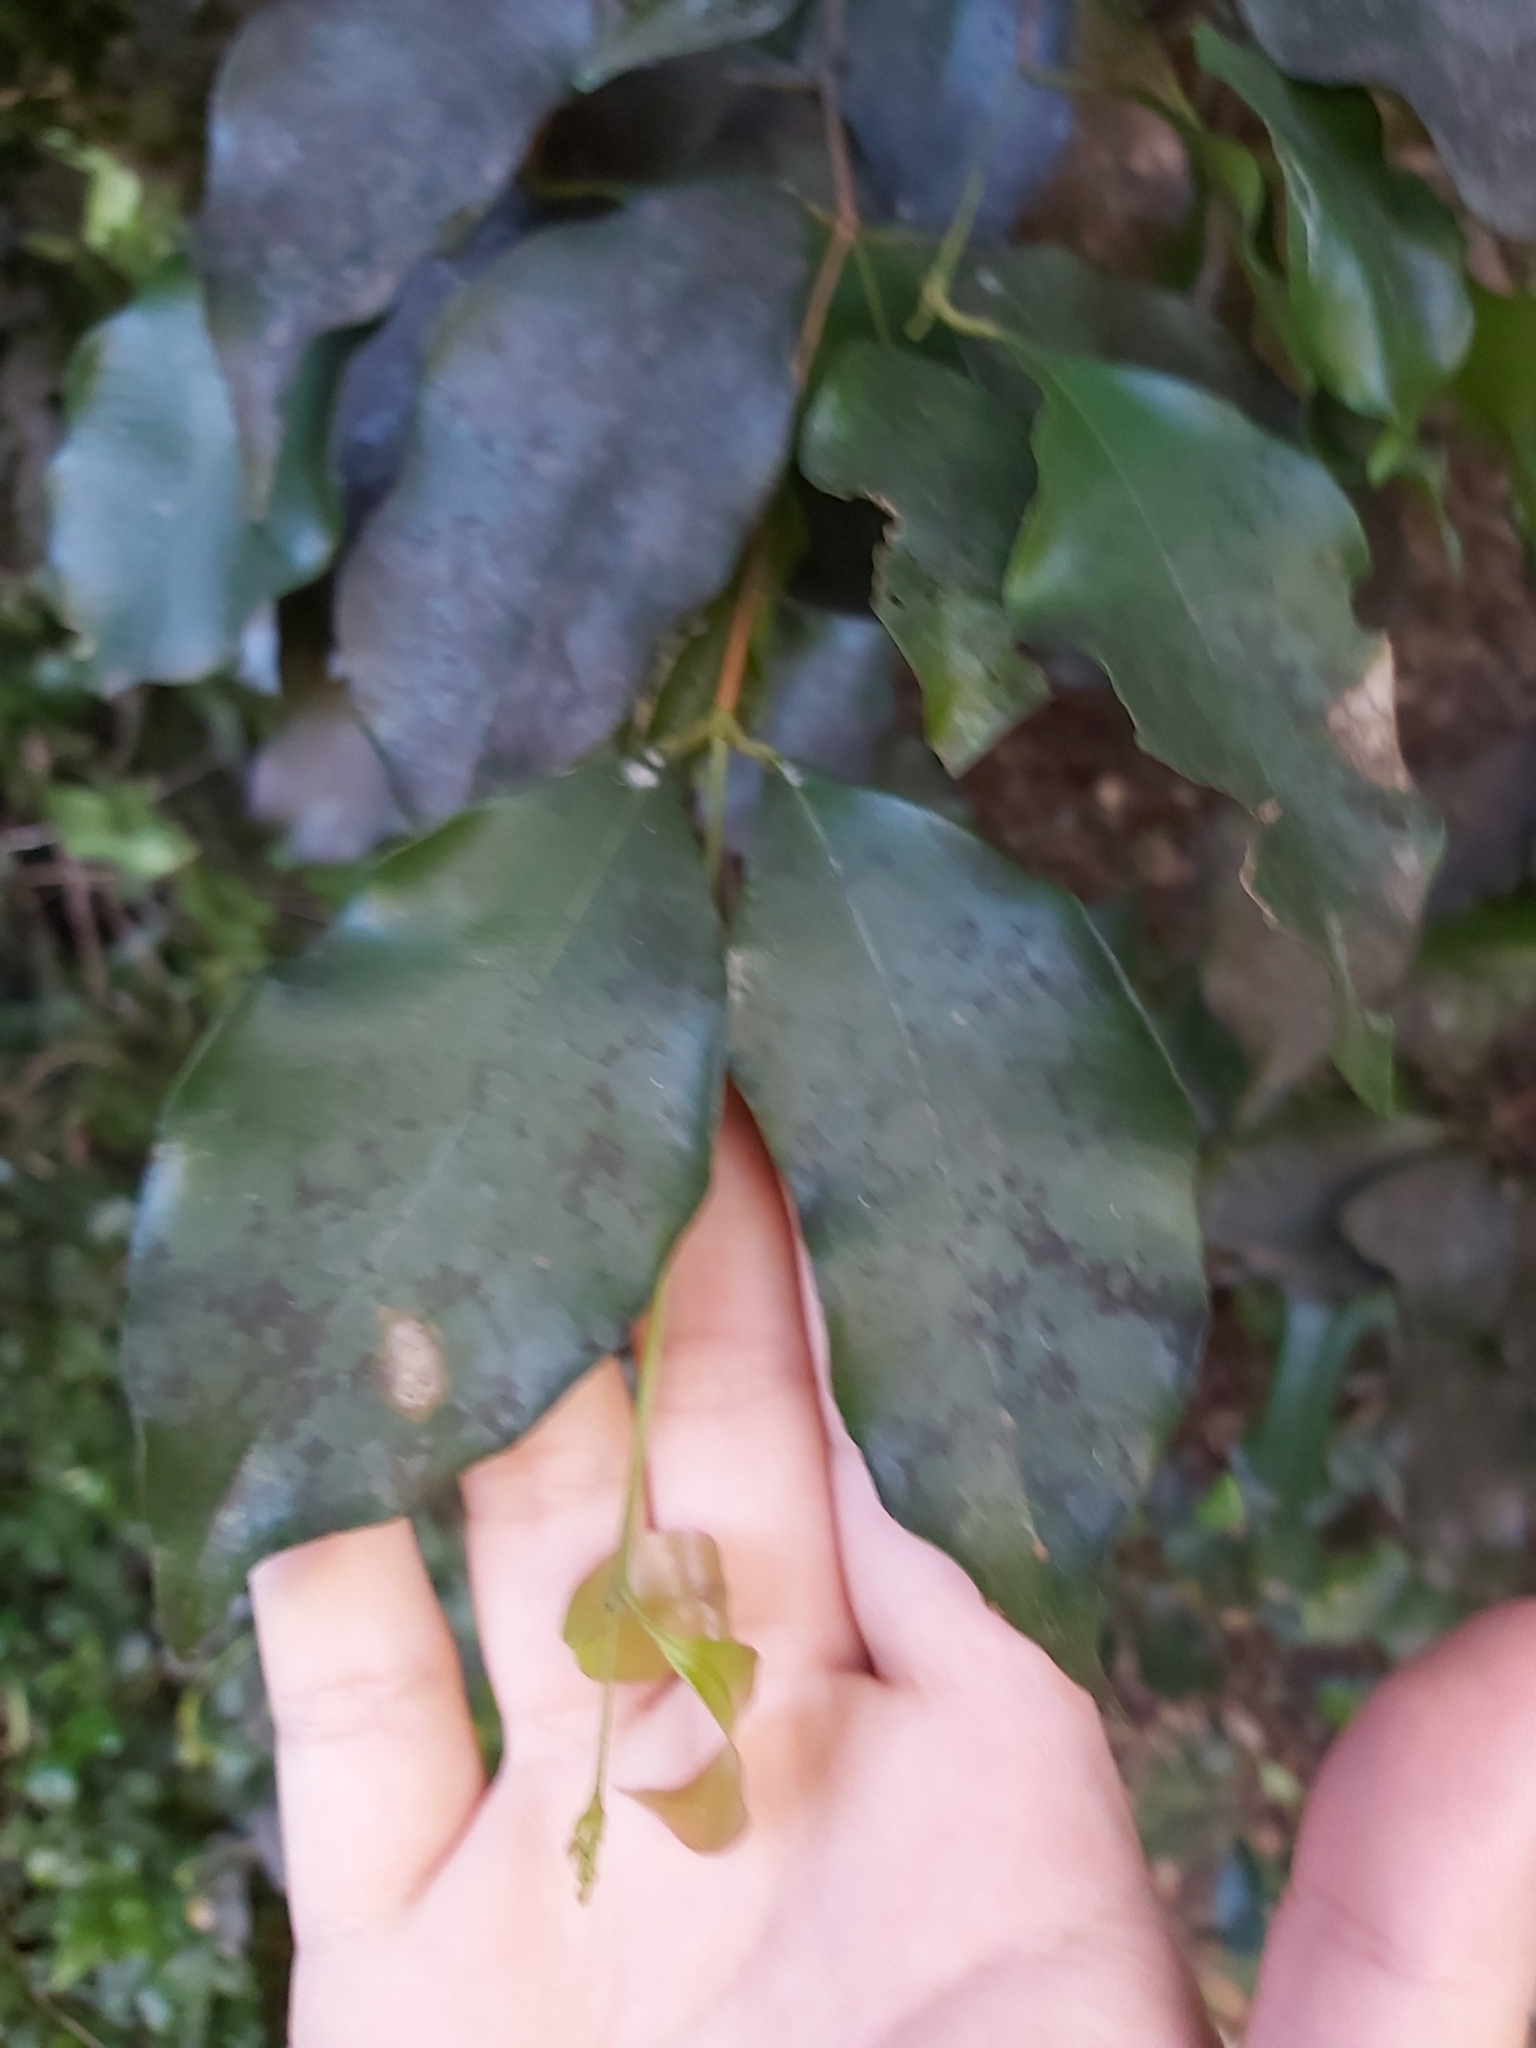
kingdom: Plantae
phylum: Tracheophyta
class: Magnoliopsida
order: Myrtales
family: Myrtaceae
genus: Syzygium
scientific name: Syzygium smithii
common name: Lilly-pilly
